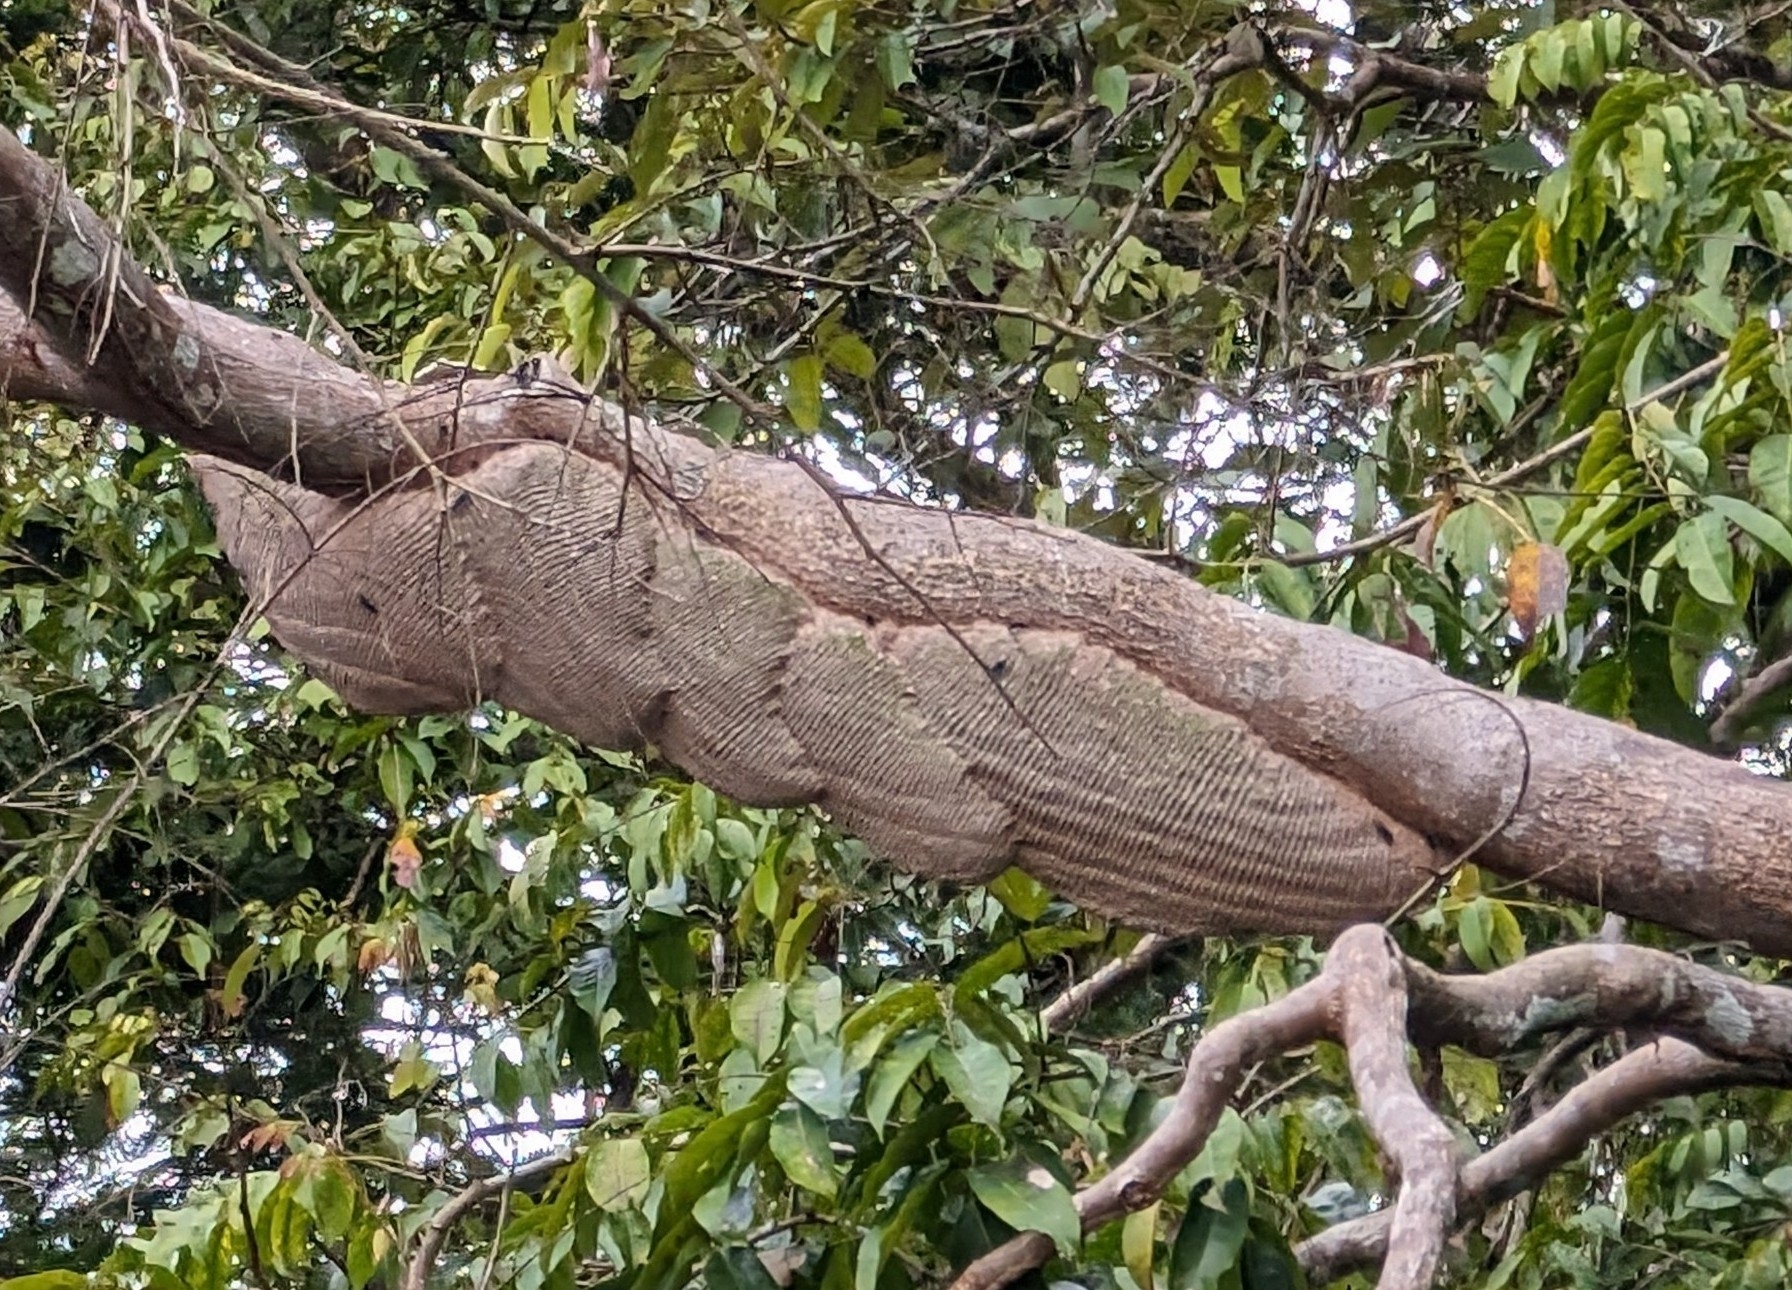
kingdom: Animalia
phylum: Arthropoda
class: Insecta
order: Hymenoptera
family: Vespidae
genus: Synoeca
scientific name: Synoeca septentrionalis
